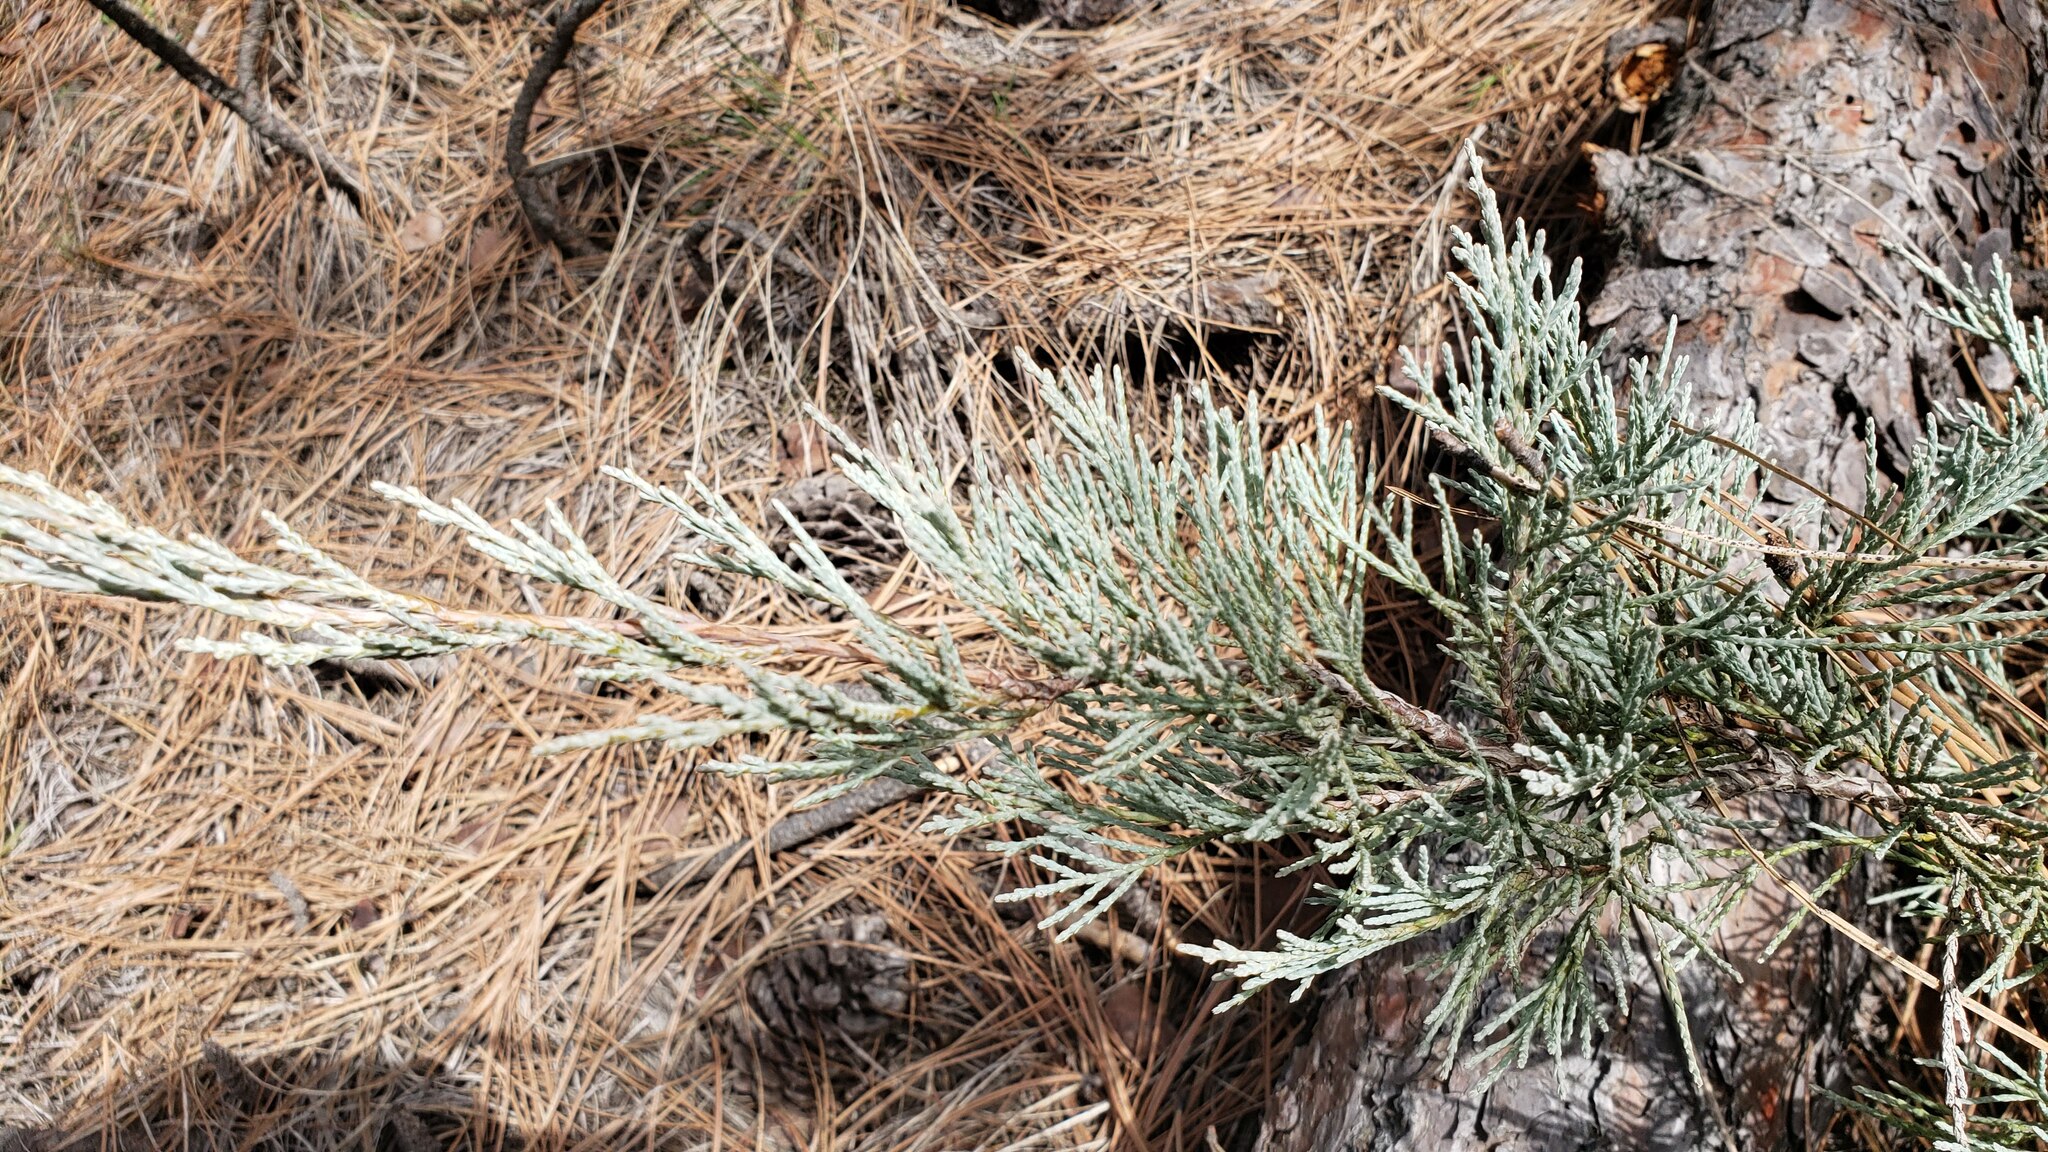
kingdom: Plantae
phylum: Tracheophyta
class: Pinopsida
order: Pinales
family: Cupressaceae
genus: Juniperus
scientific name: Juniperus horizontalis
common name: Creeping juniper
